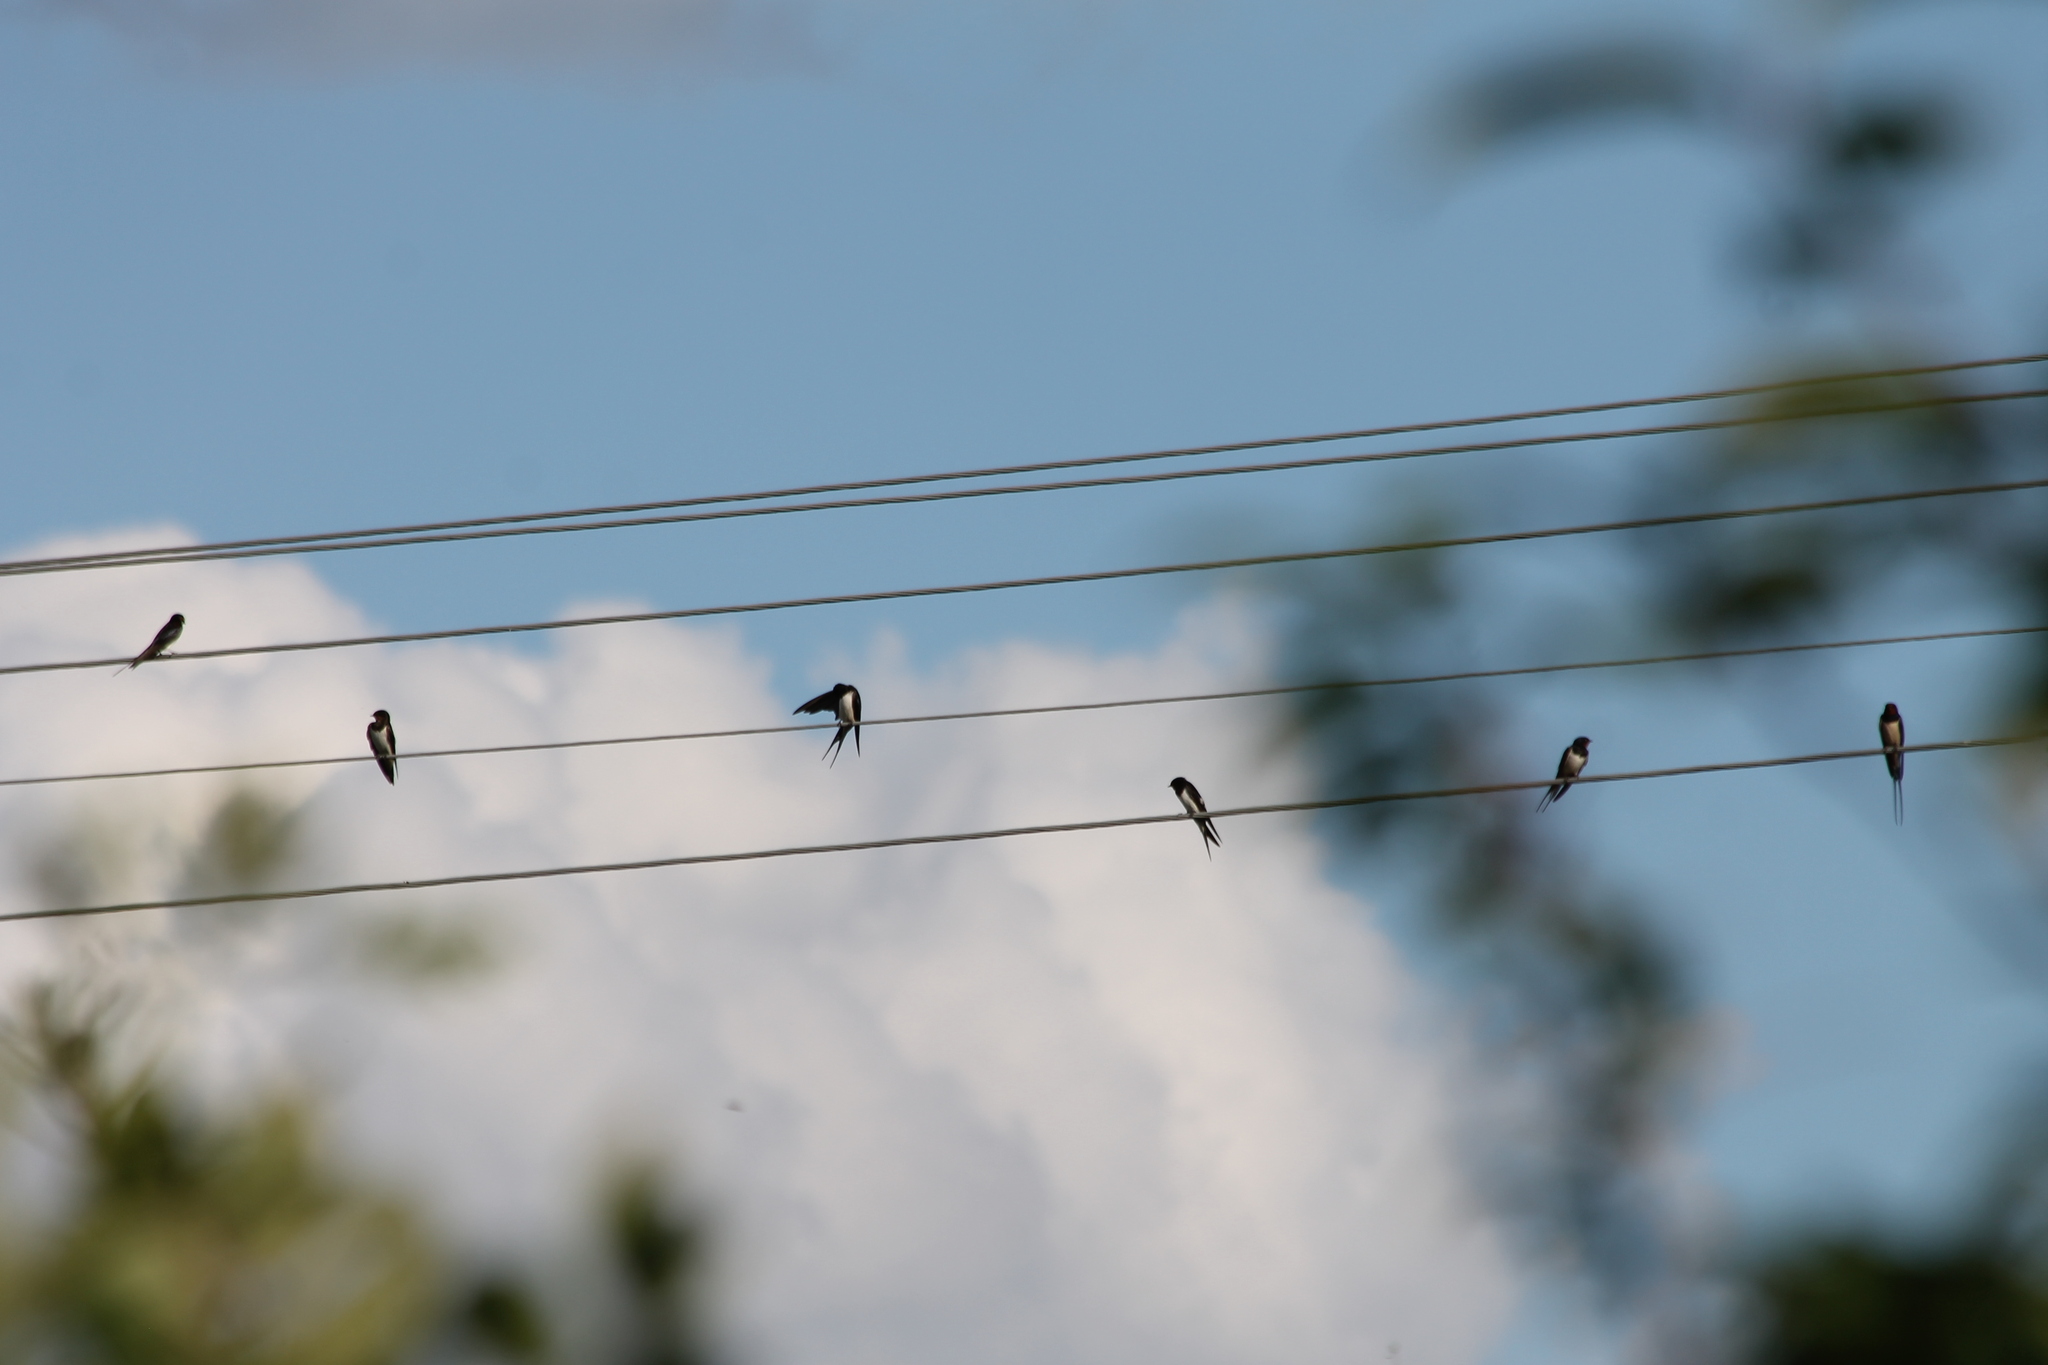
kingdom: Animalia
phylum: Chordata
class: Aves
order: Passeriformes
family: Hirundinidae
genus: Hirundo
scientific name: Hirundo rustica
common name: Barn swallow
